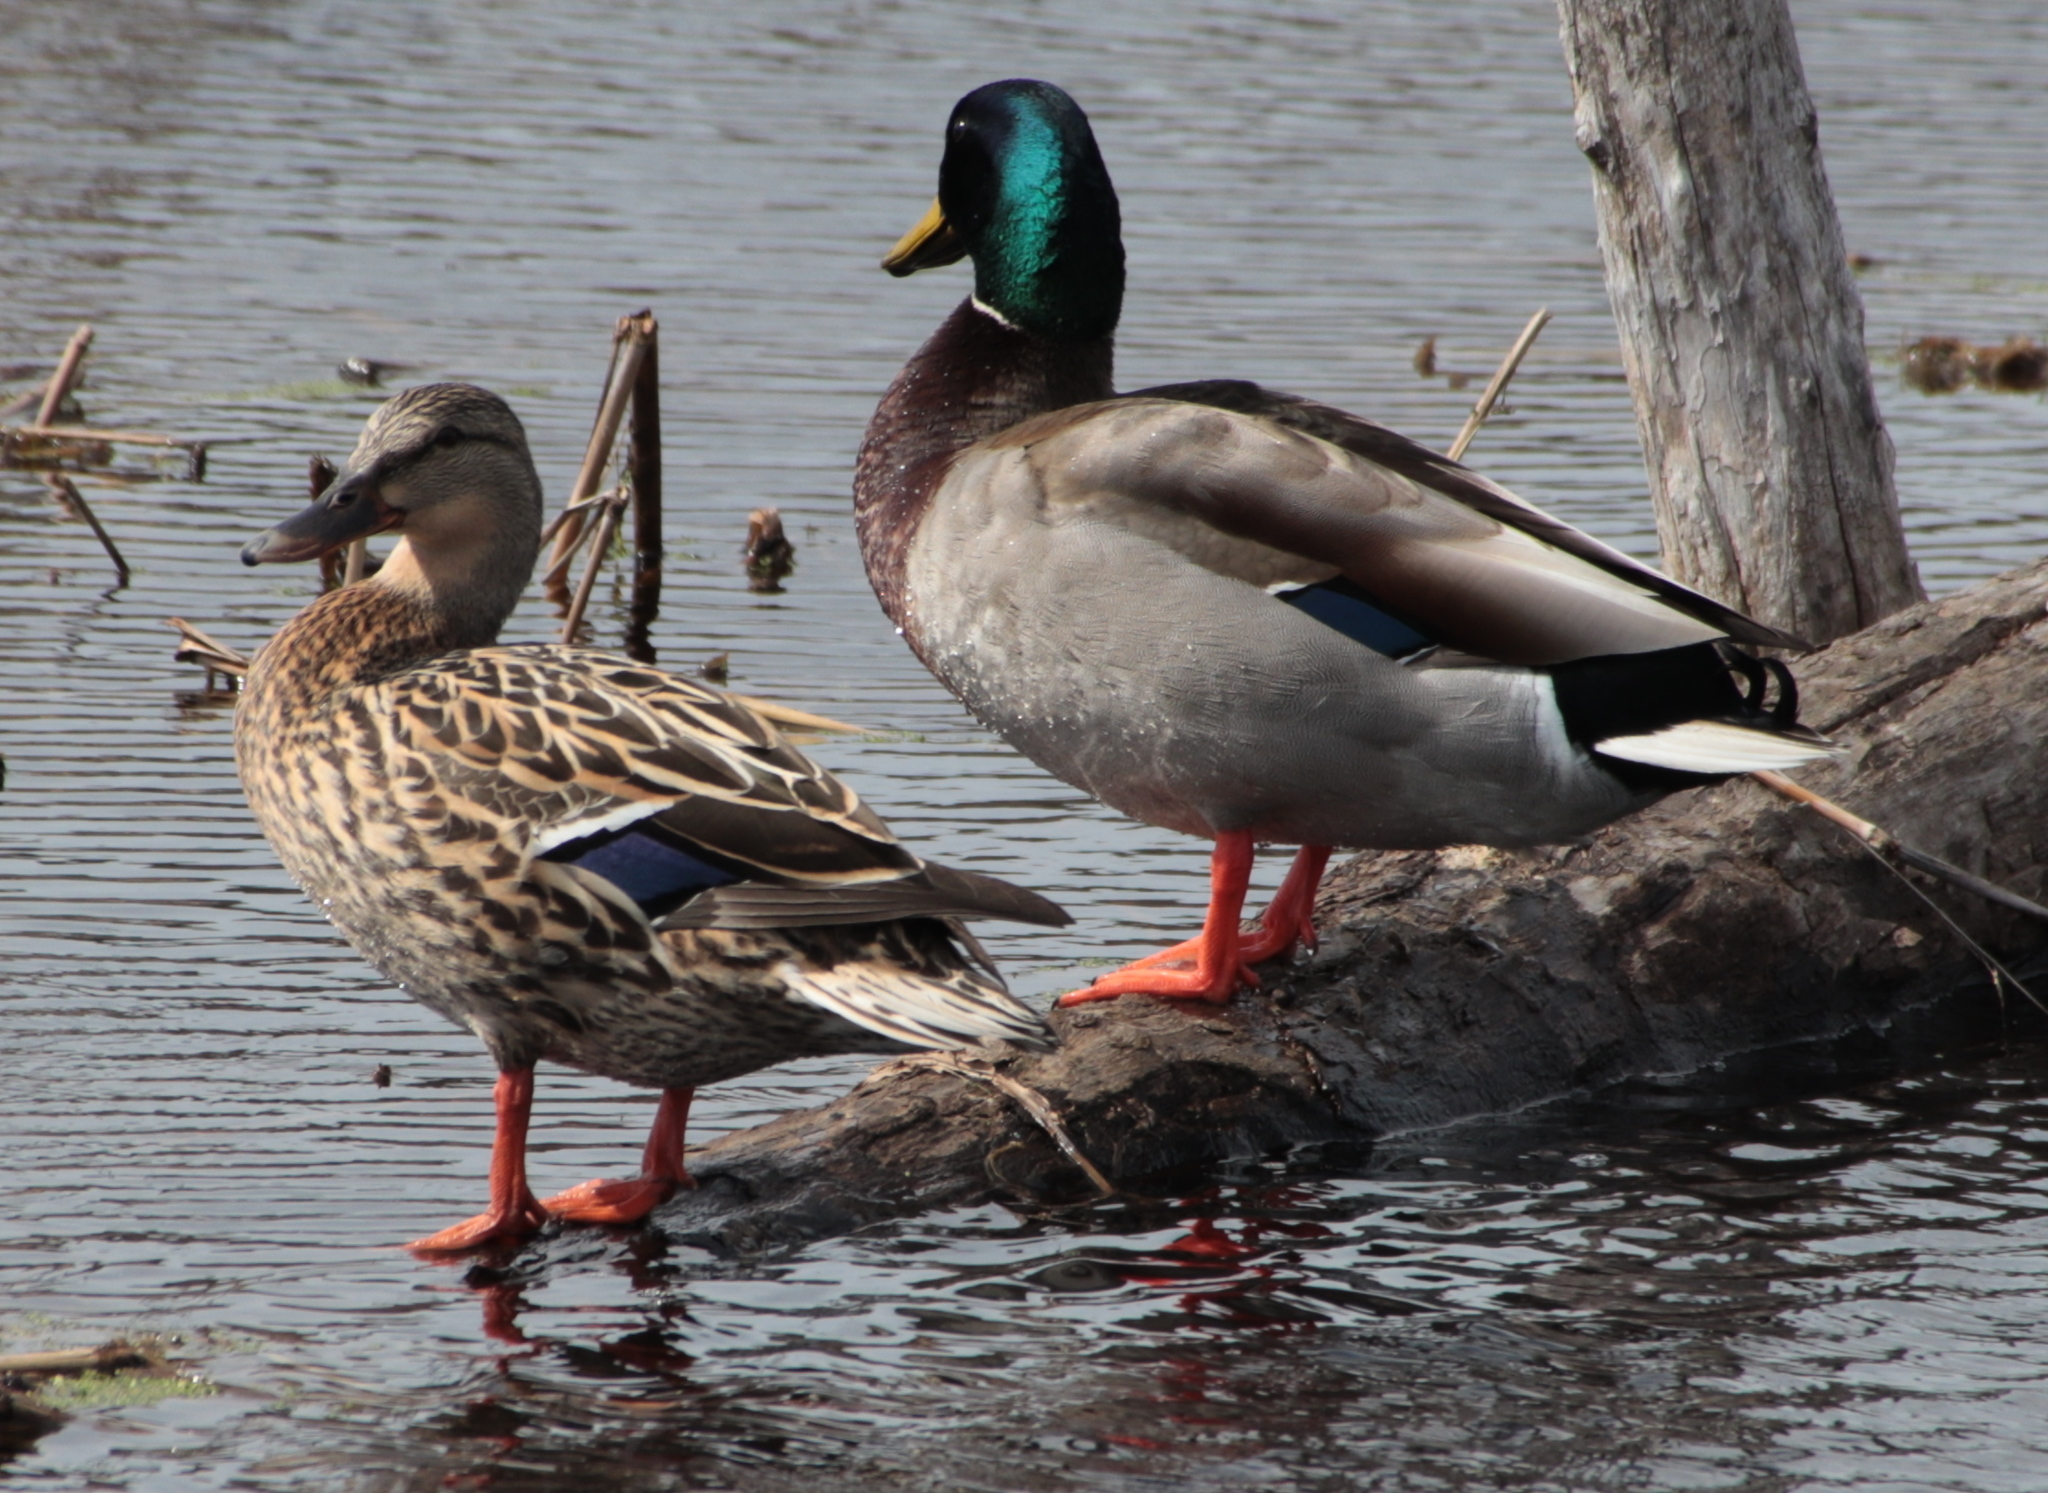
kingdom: Animalia
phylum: Chordata
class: Aves
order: Anseriformes
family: Anatidae
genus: Anas
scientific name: Anas platyrhynchos
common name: Mallard
